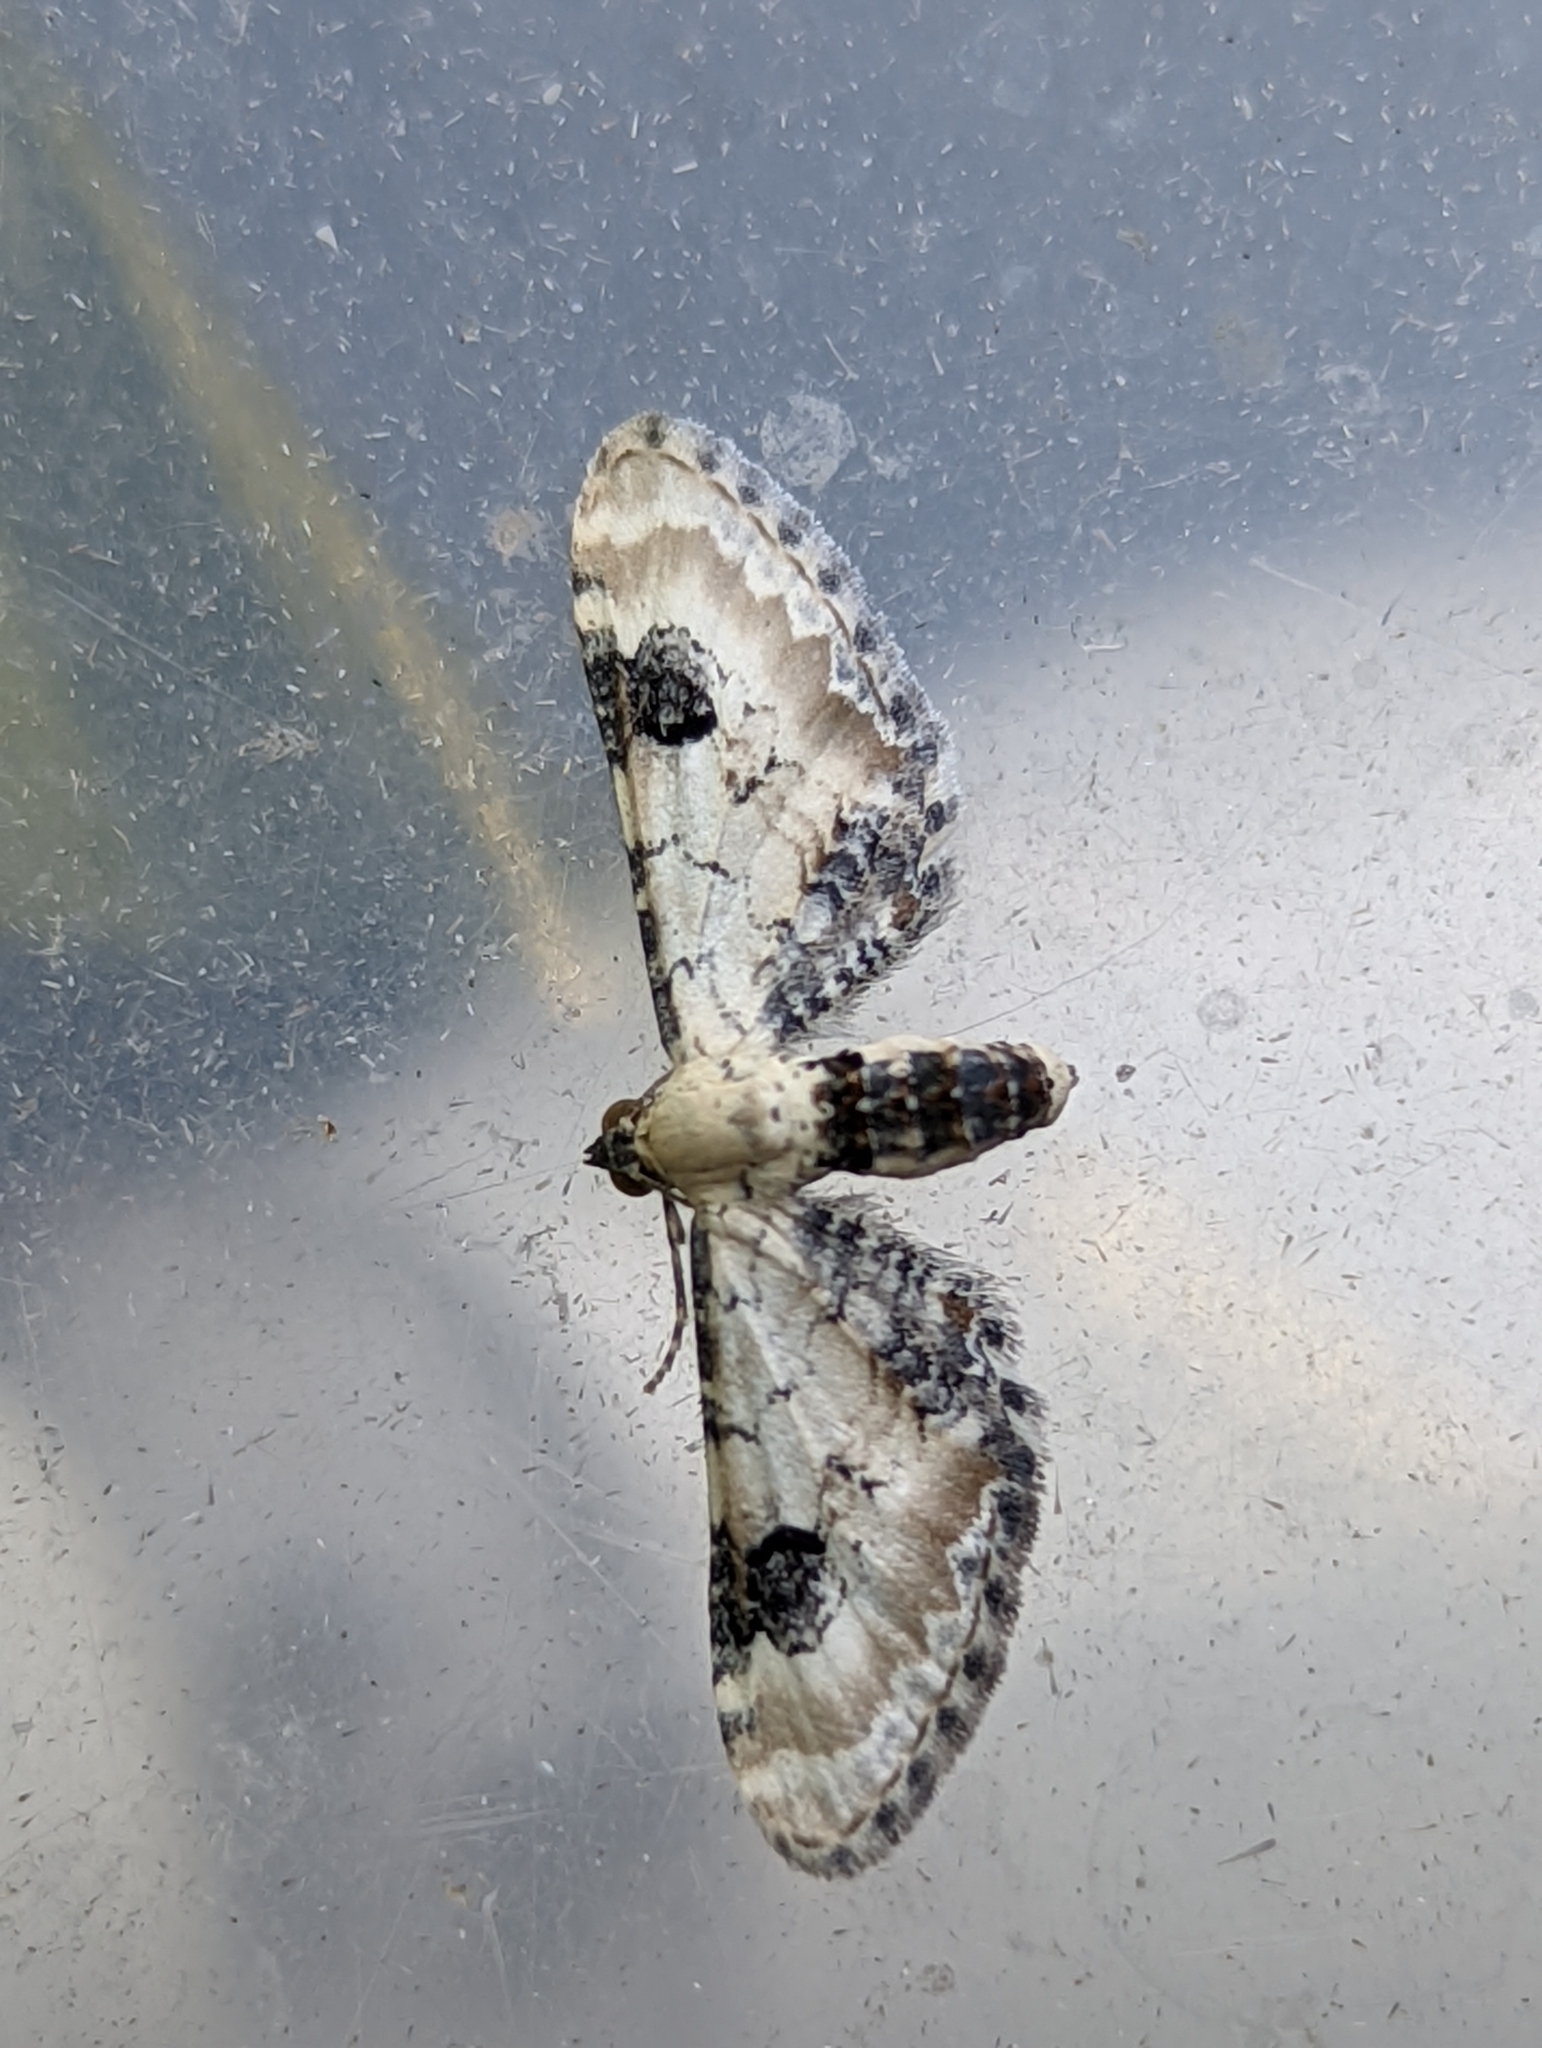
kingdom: Animalia
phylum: Arthropoda
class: Insecta
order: Lepidoptera
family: Geometridae
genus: Eupithecia
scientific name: Eupithecia centaureata
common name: Lime-speck pug
